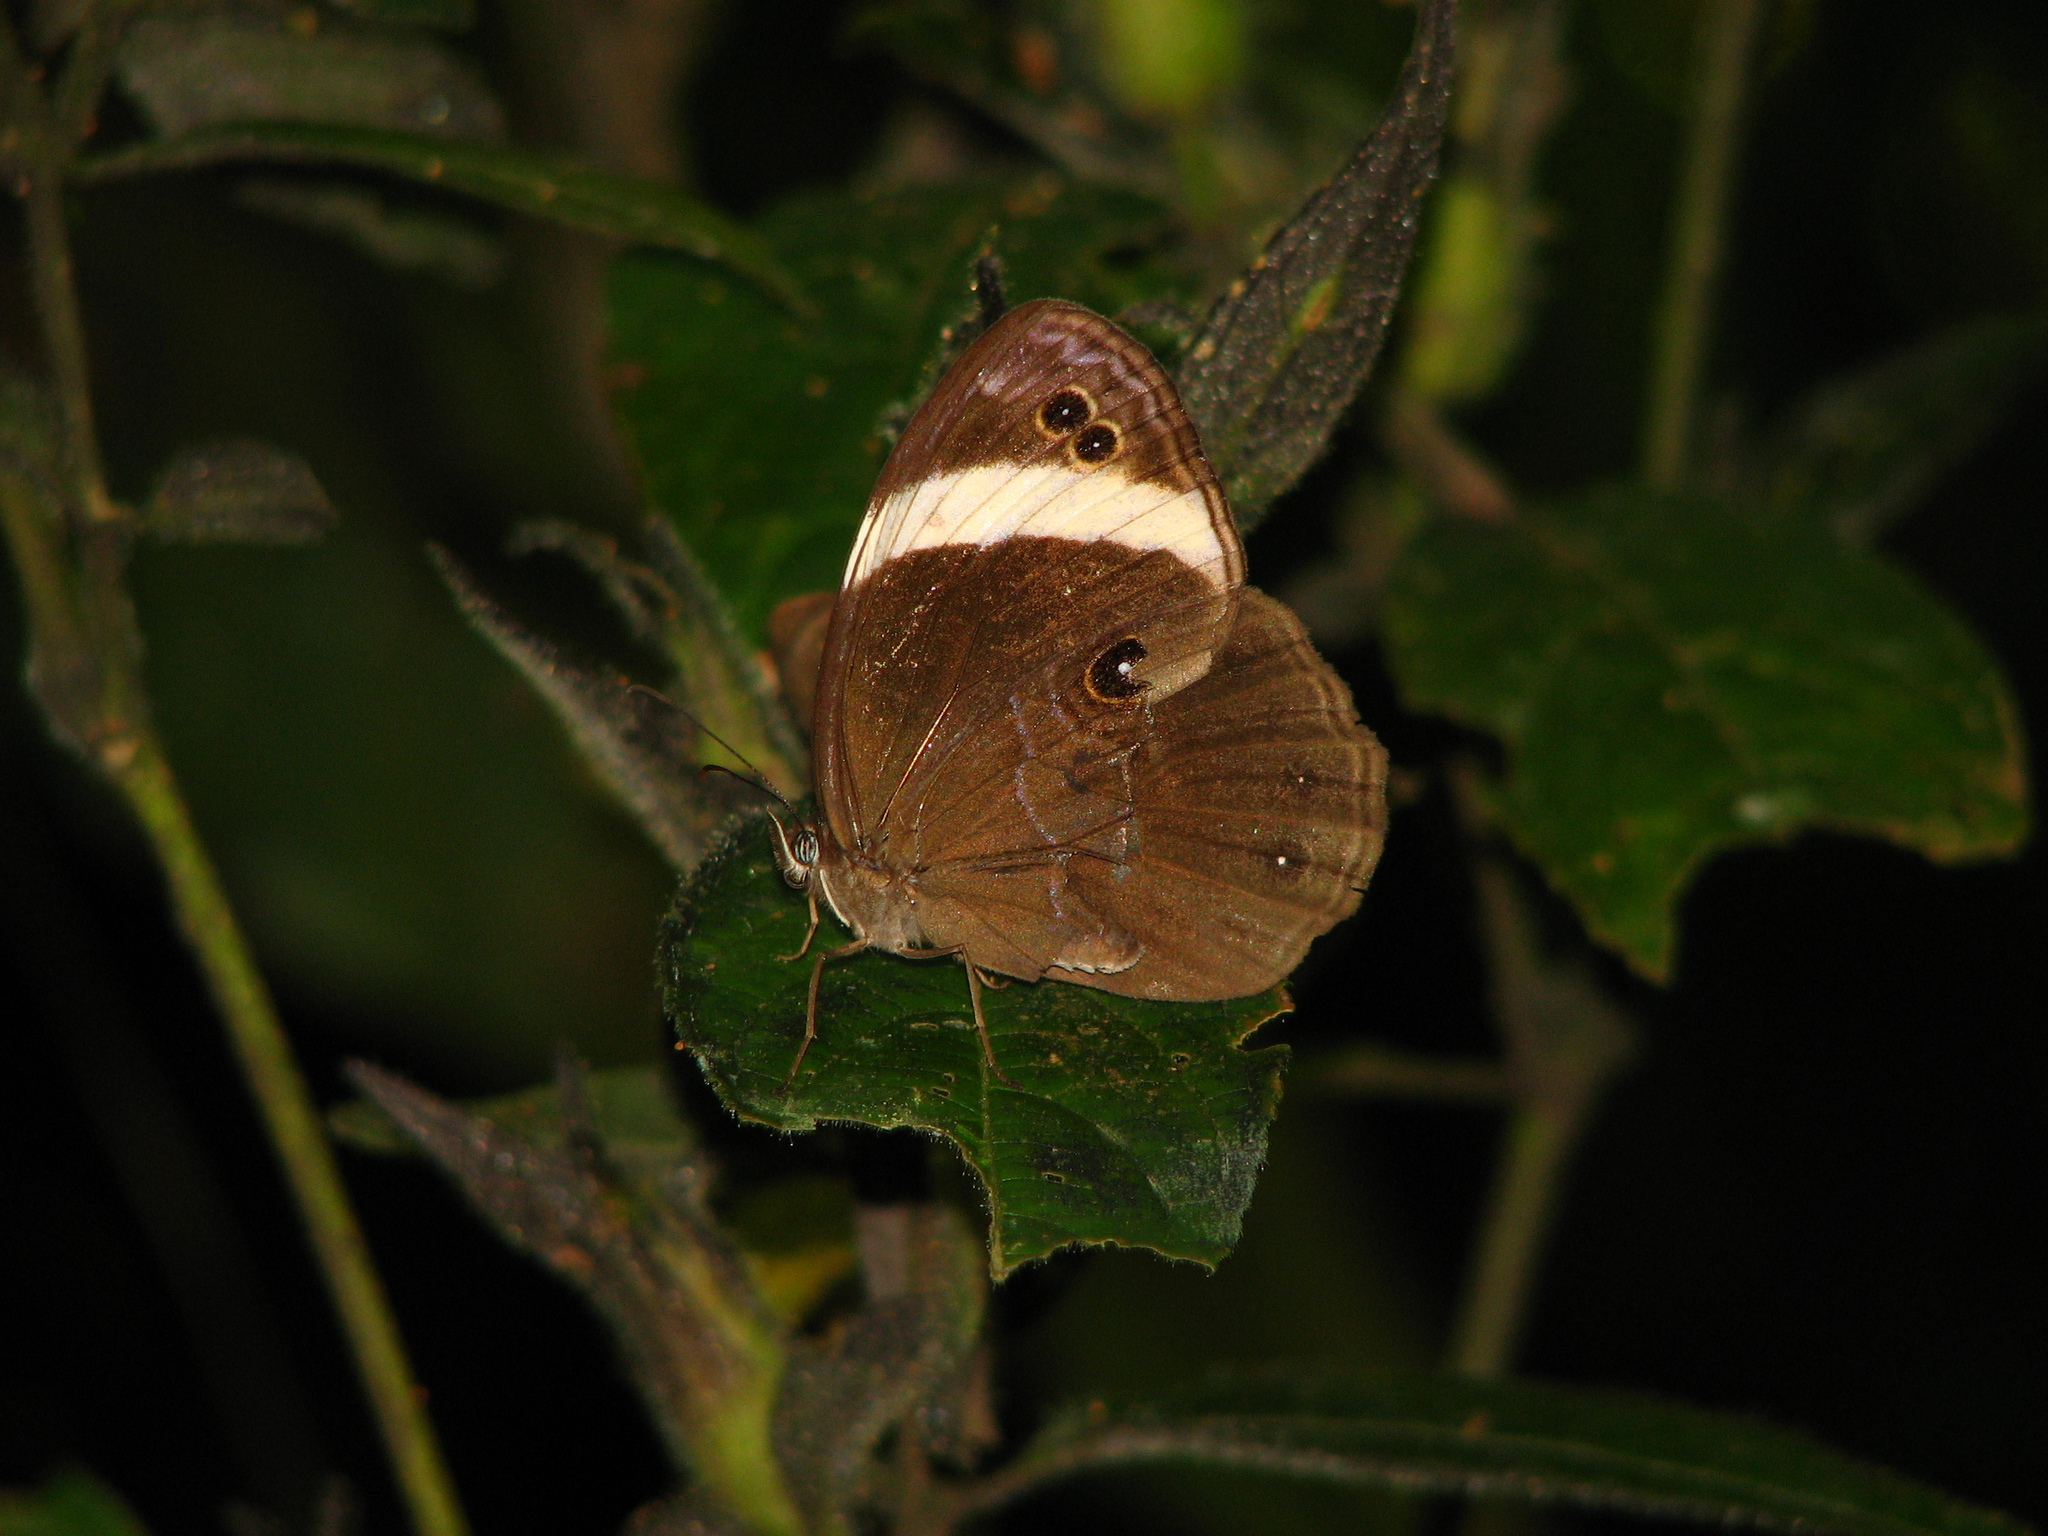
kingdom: Animalia
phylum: Arthropoda
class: Insecta
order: Lepidoptera
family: Nymphalidae
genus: Lethe
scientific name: Lethe verma
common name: Straight-banded treebrown
